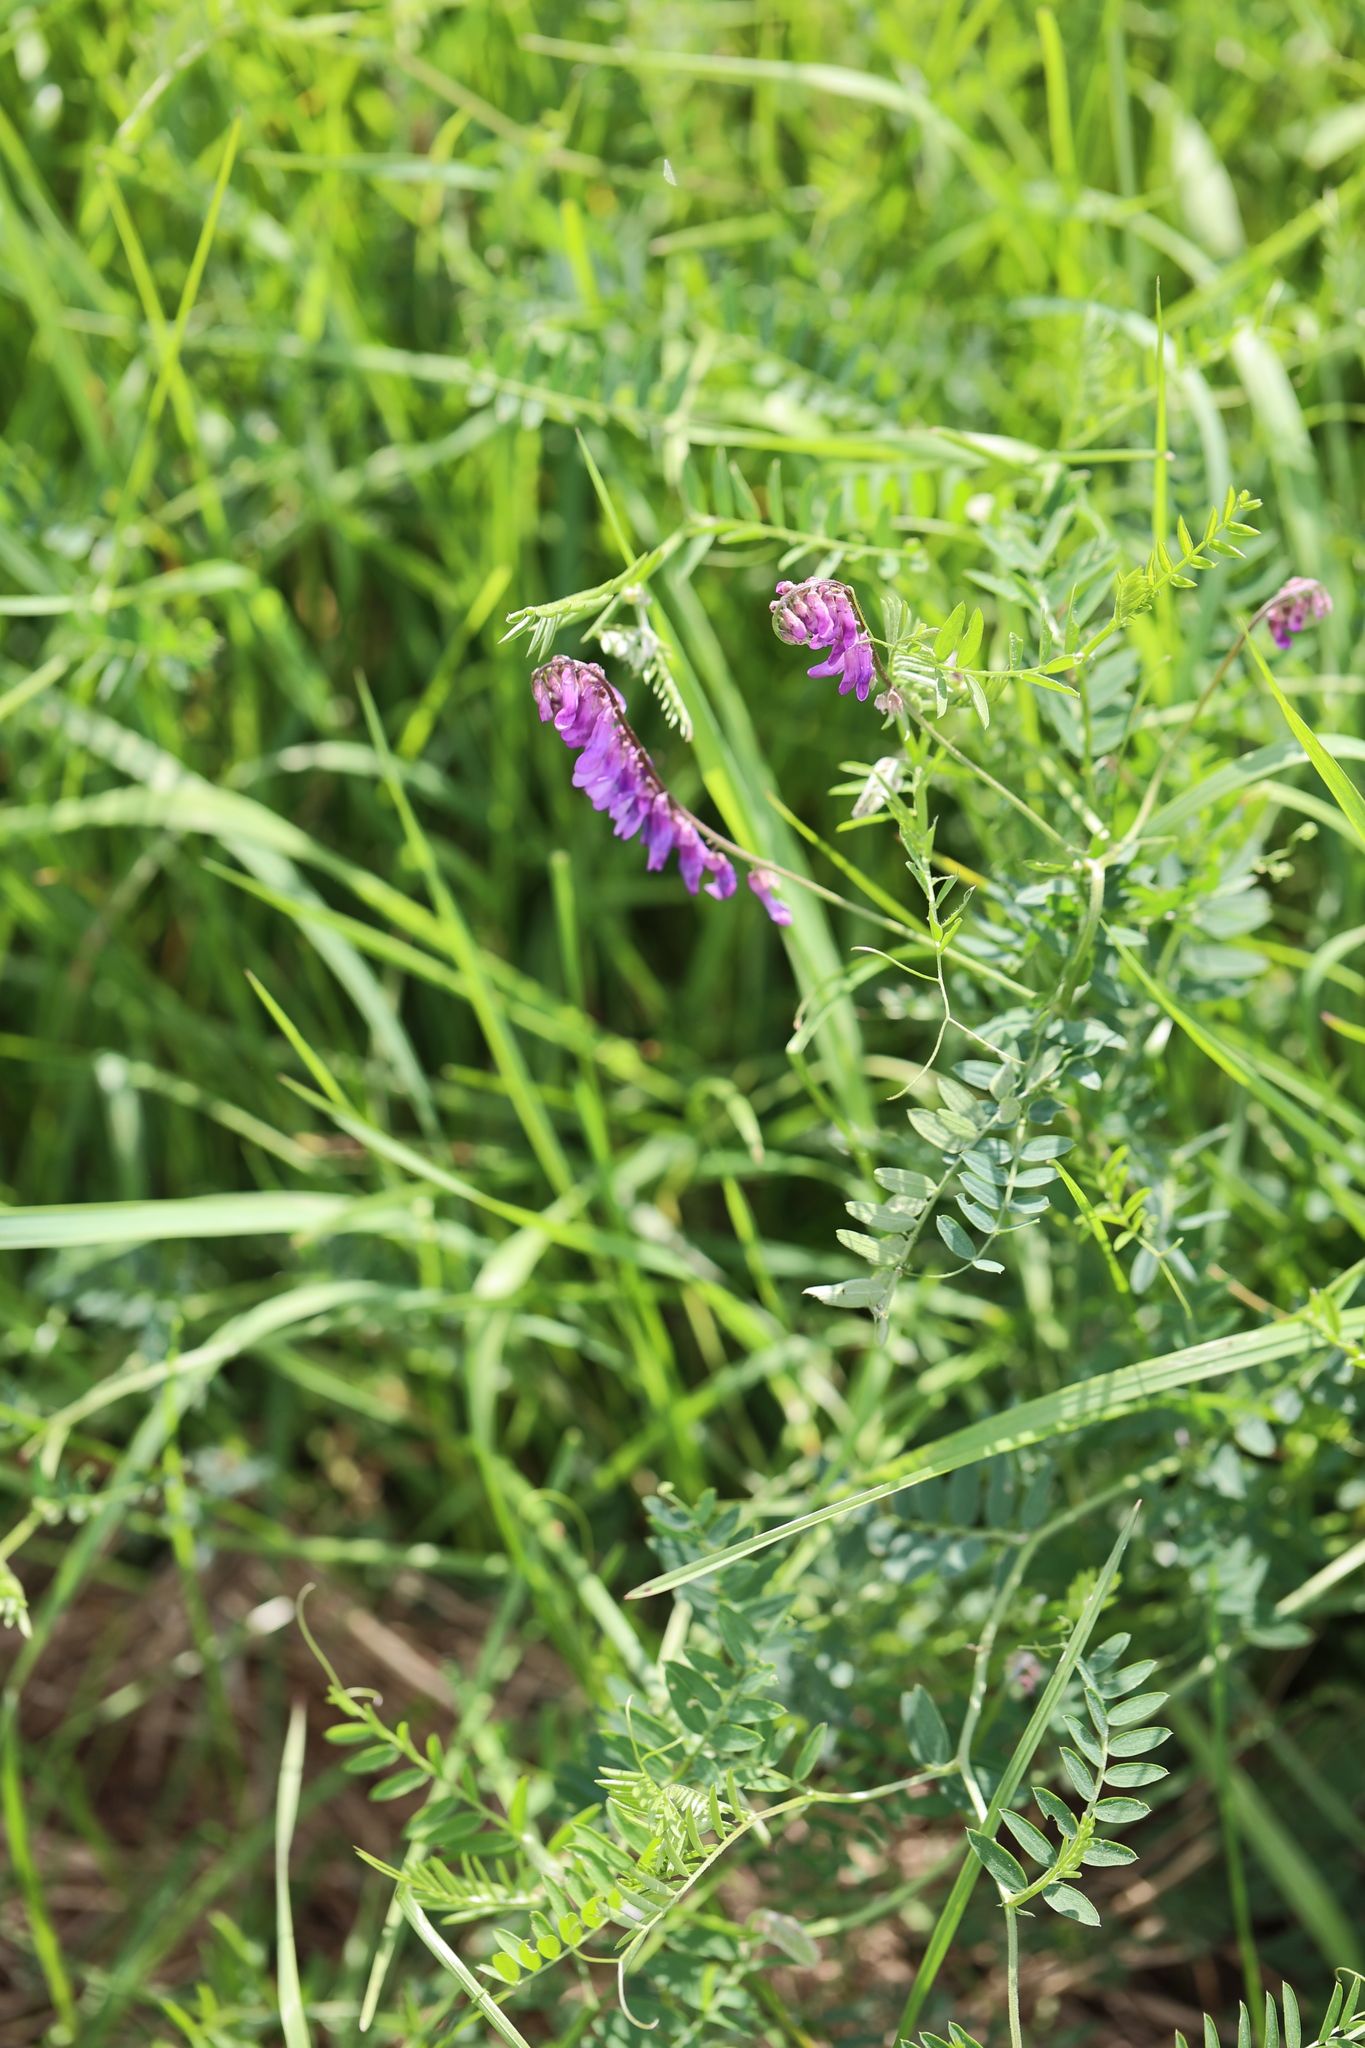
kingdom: Plantae
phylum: Tracheophyta
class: Magnoliopsida
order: Fabales
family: Fabaceae
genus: Vicia
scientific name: Vicia cracca
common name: Bird vetch
